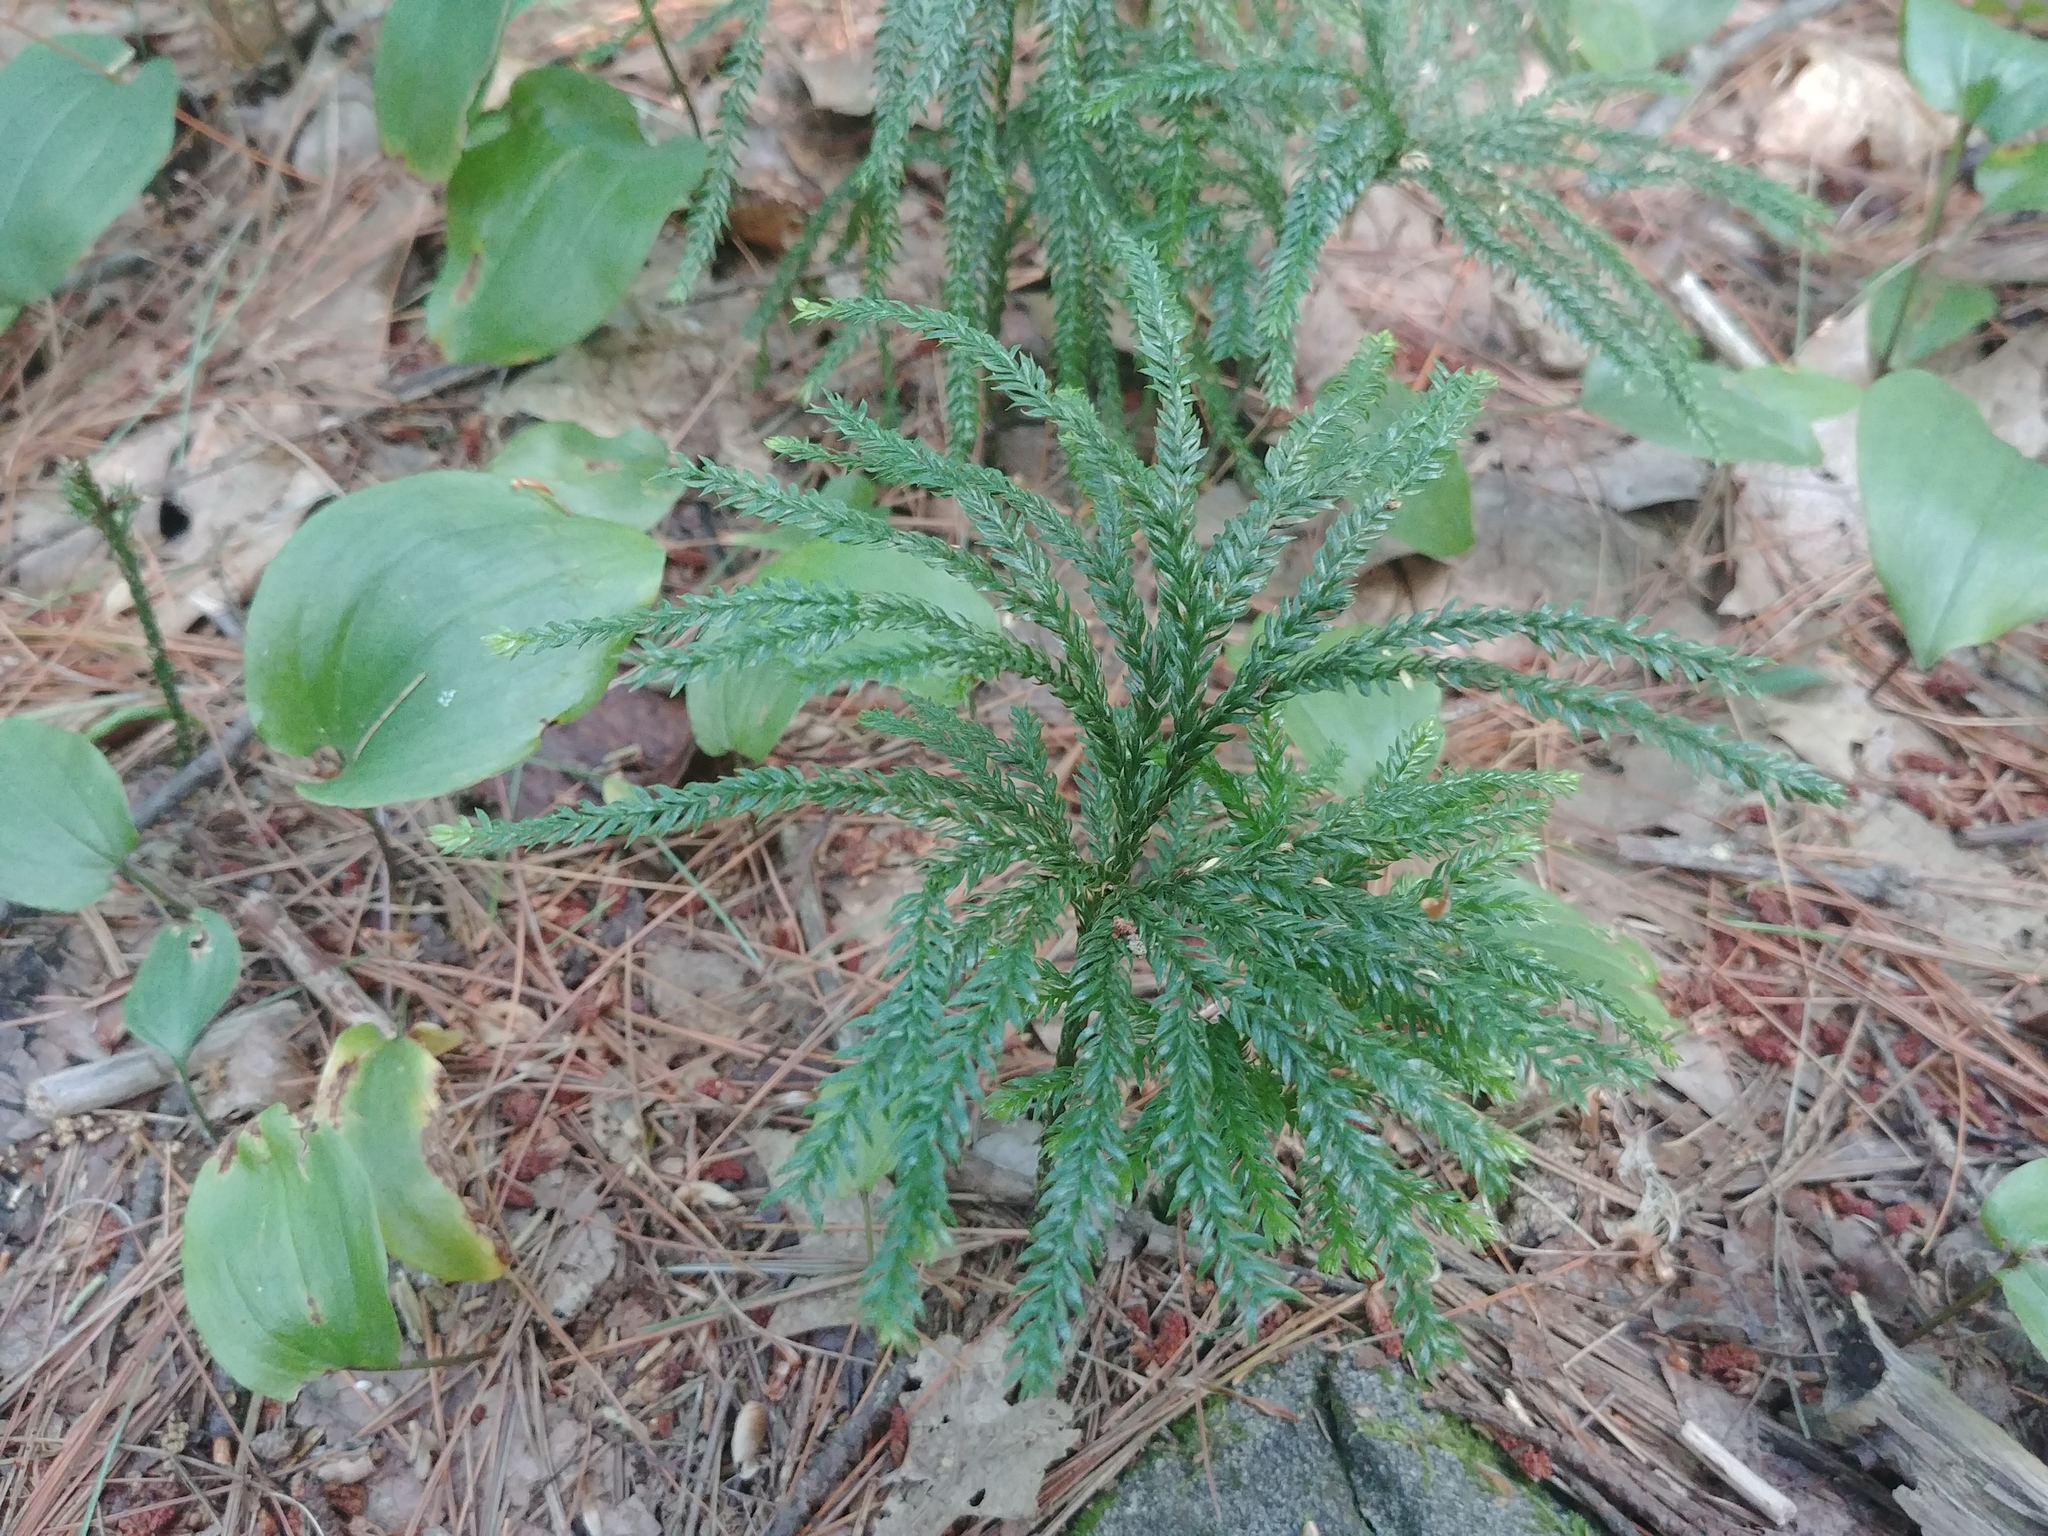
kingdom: Plantae
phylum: Tracheophyta
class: Lycopodiopsida
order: Lycopodiales
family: Lycopodiaceae
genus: Dendrolycopodium
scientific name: Dendrolycopodium obscurum
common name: Common ground-pine
